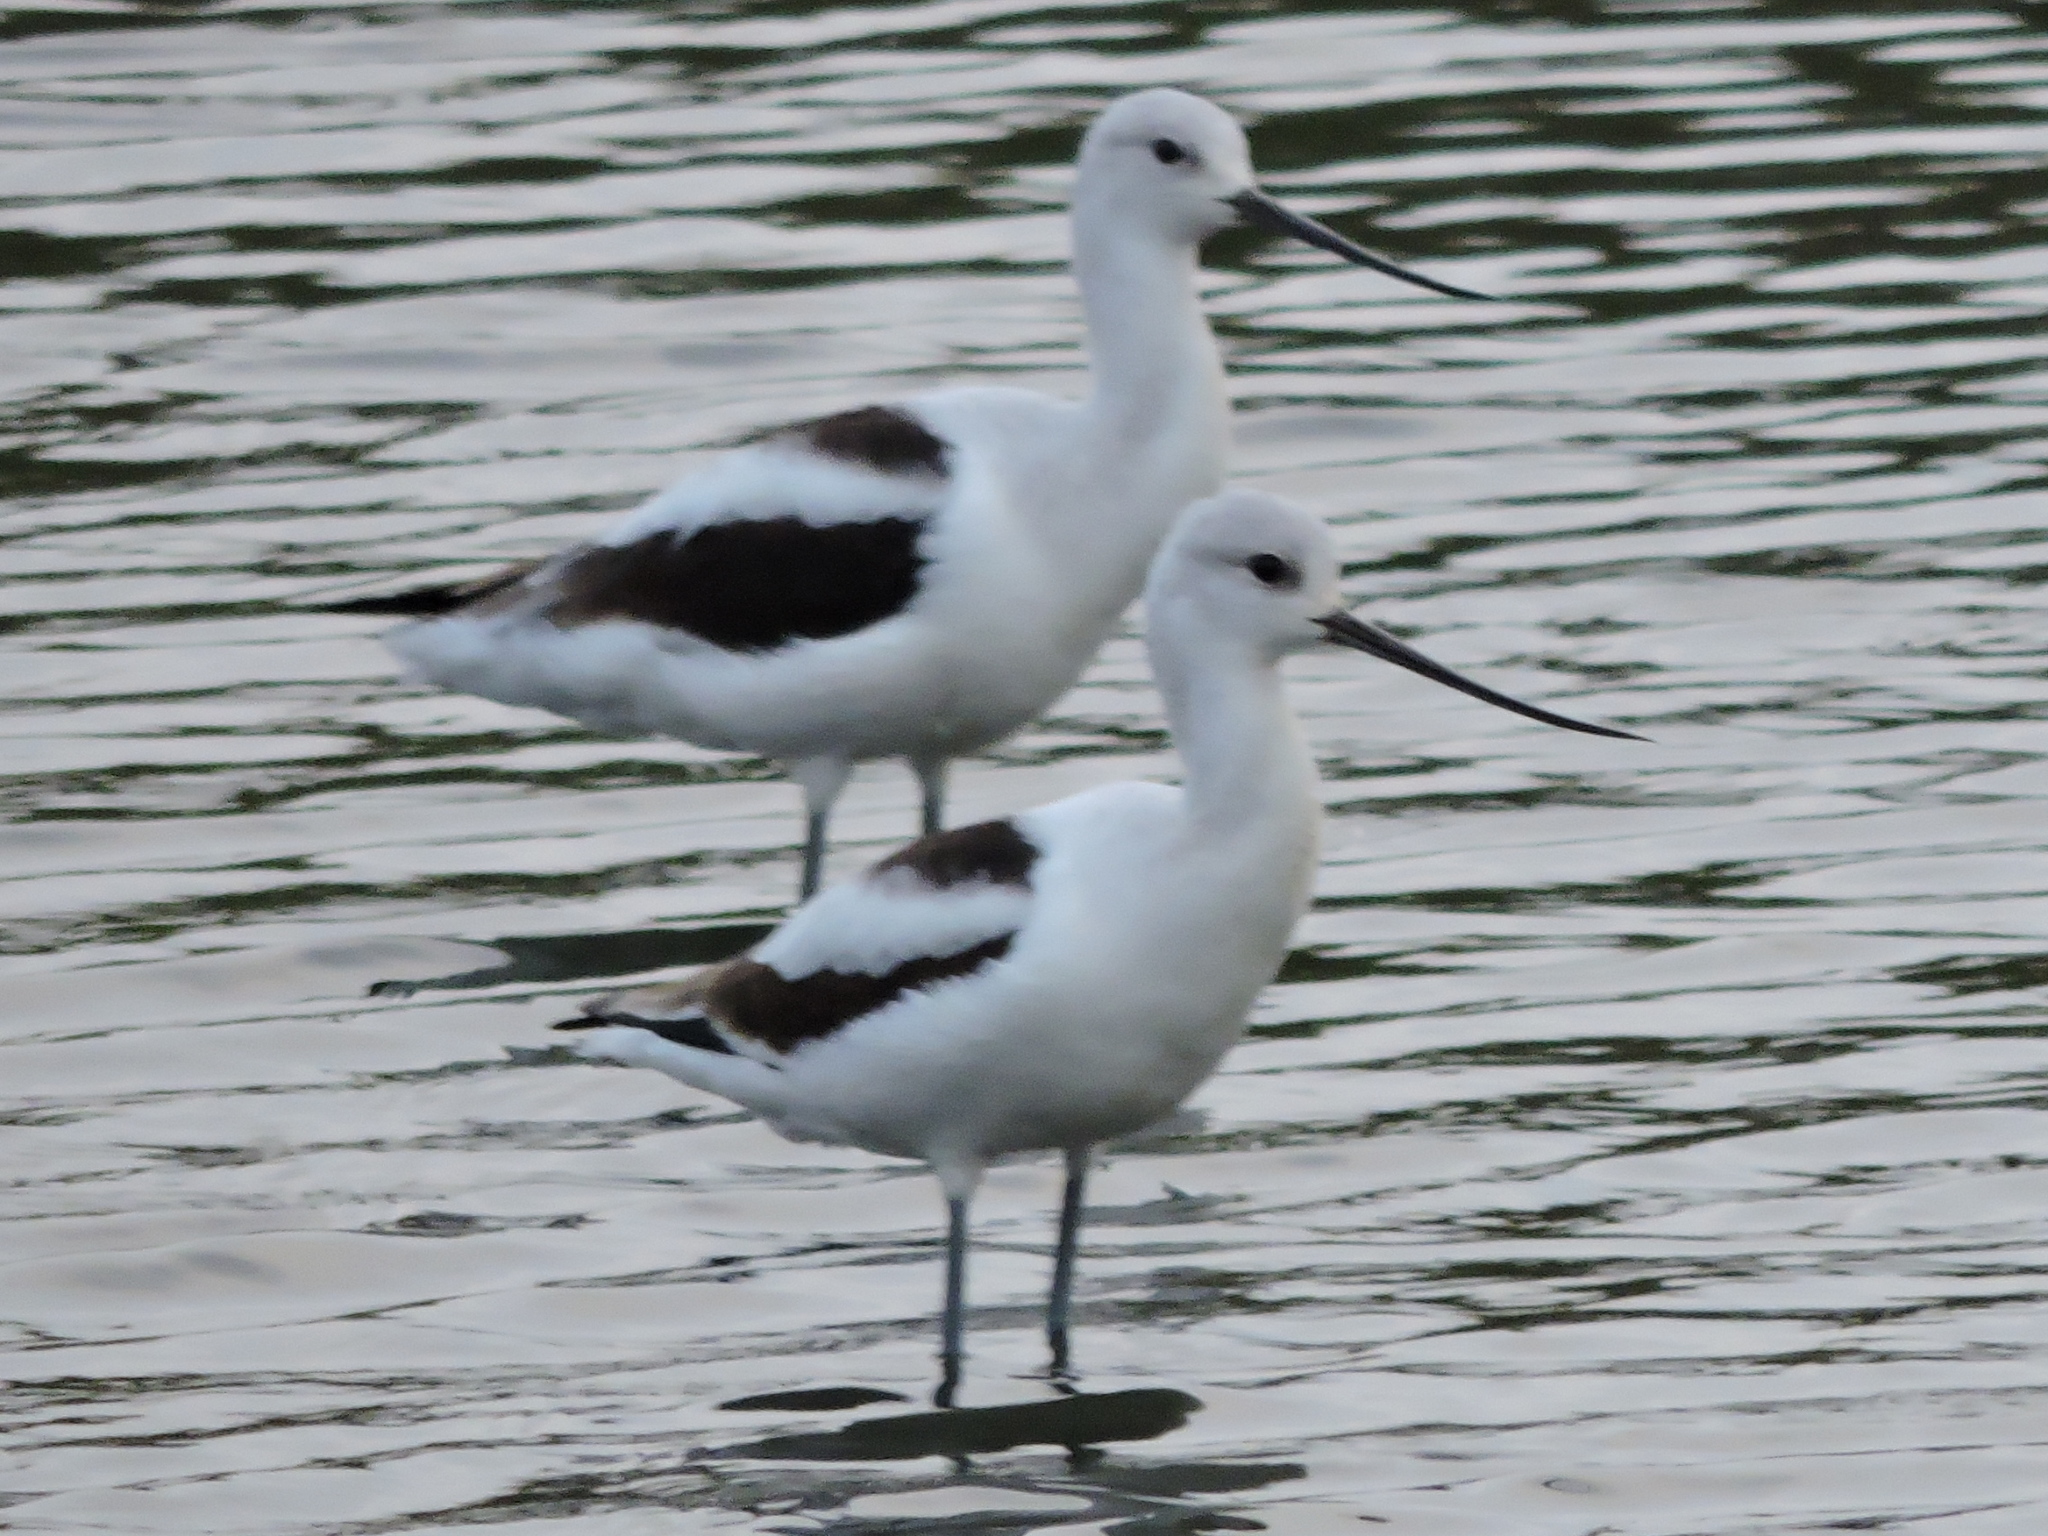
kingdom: Animalia
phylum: Chordata
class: Aves
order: Charadriiformes
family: Recurvirostridae
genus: Recurvirostra
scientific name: Recurvirostra americana
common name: American avocet
